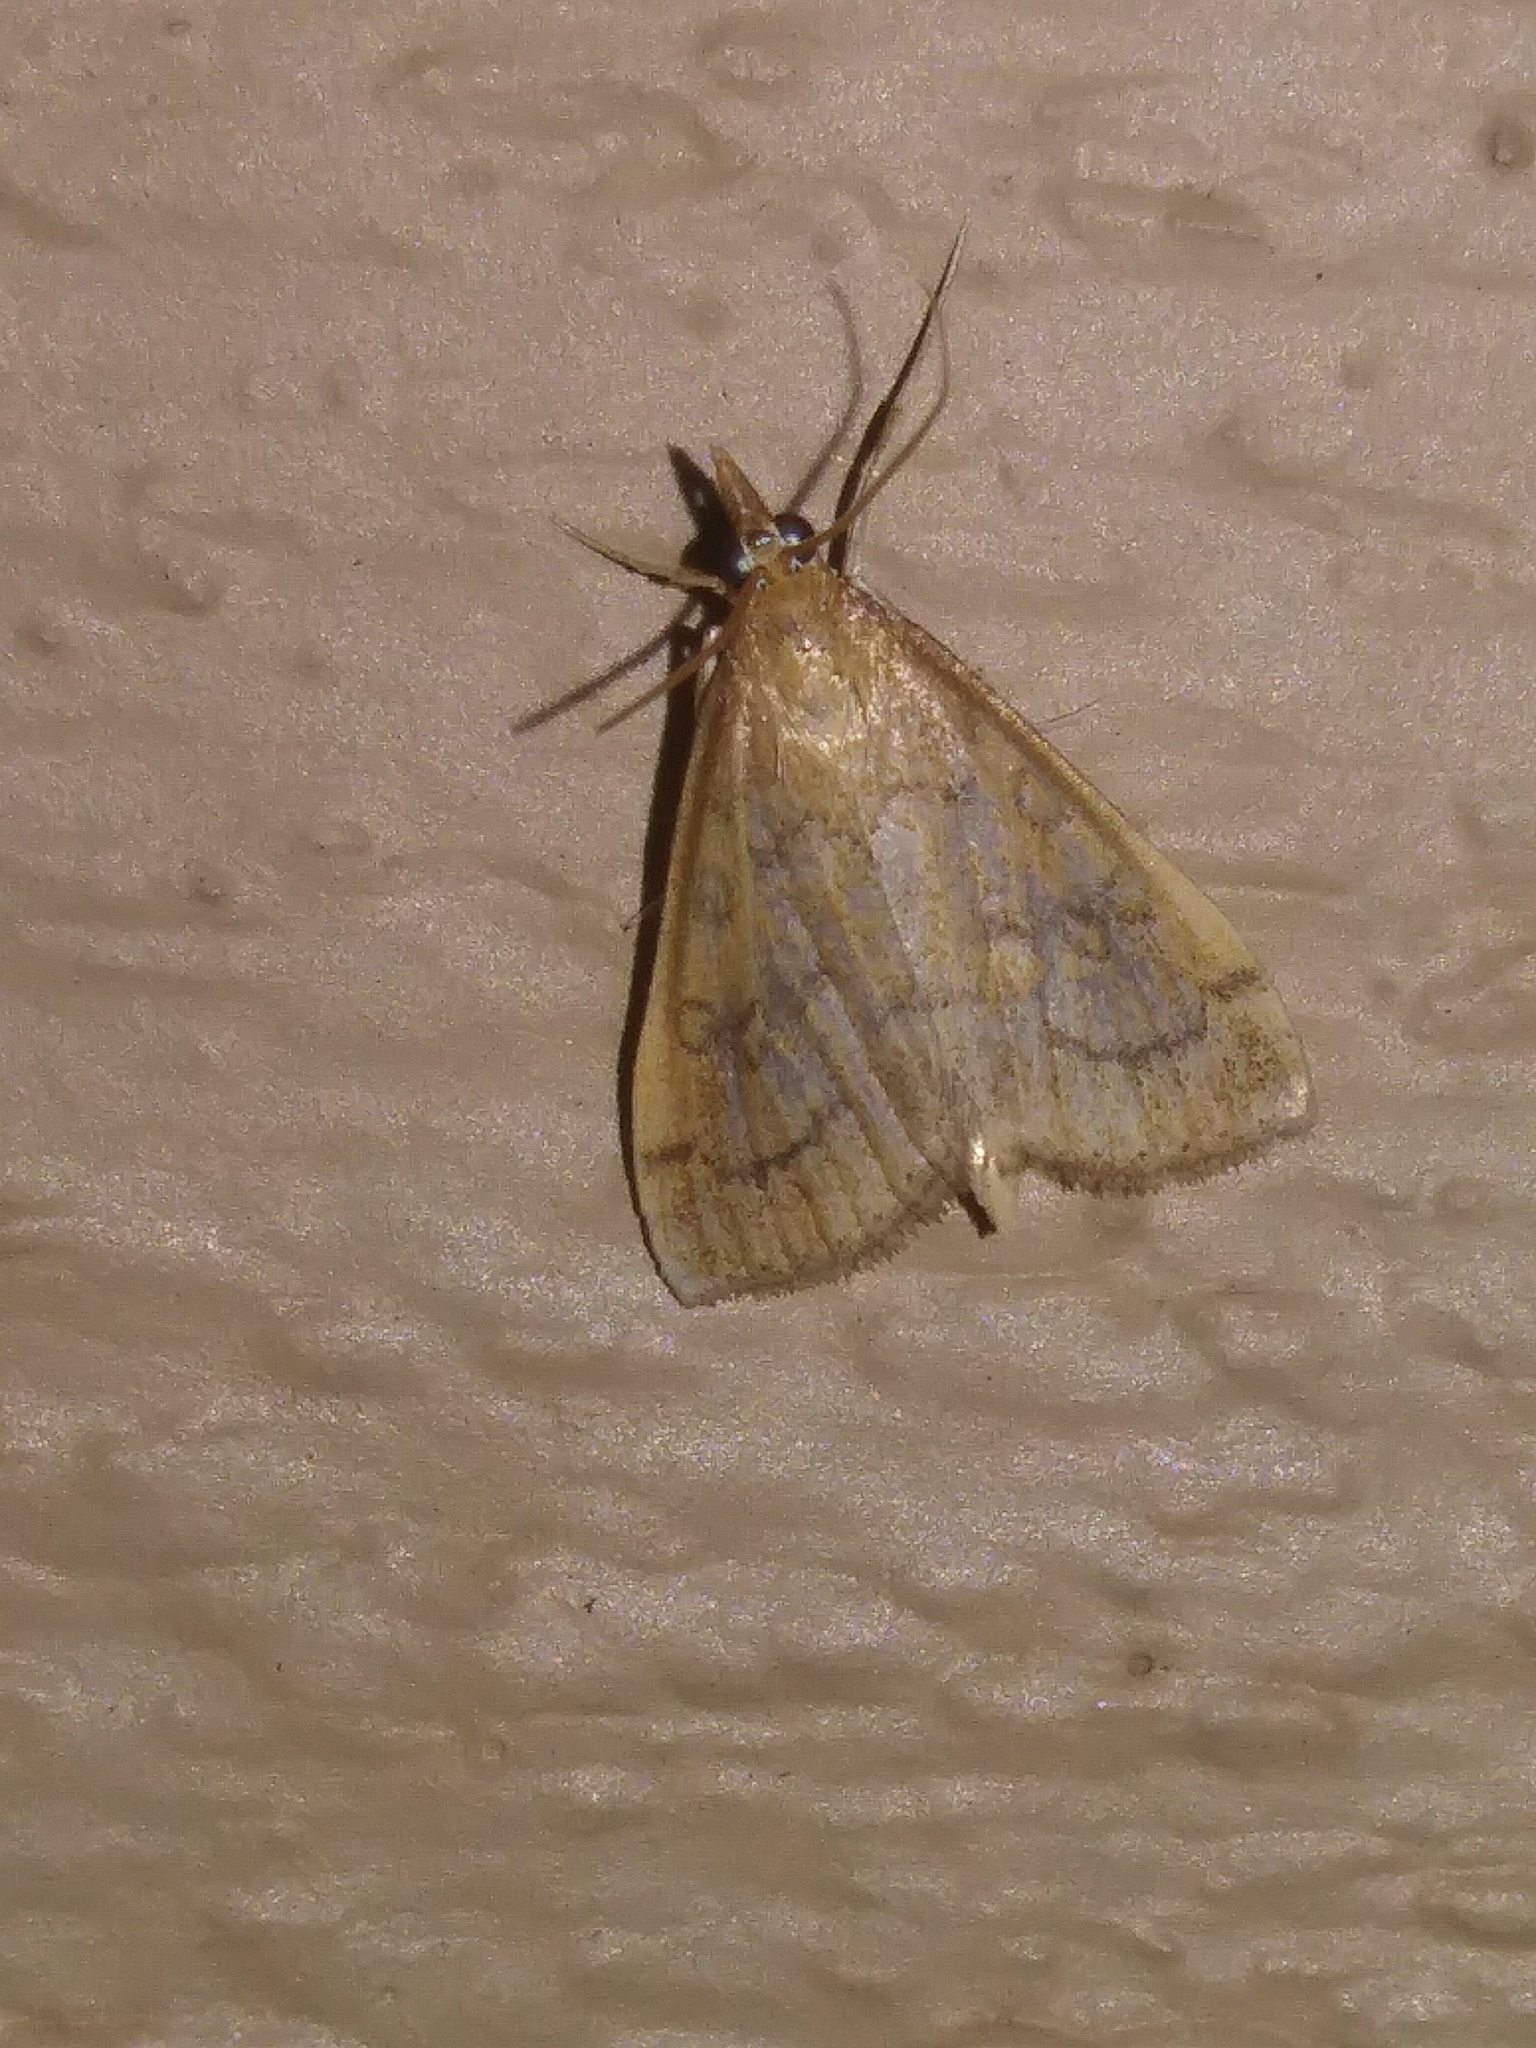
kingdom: Animalia
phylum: Arthropoda
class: Insecta
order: Lepidoptera
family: Crambidae
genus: Udea
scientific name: Udea rubigalis
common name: Celery leaftier moth
